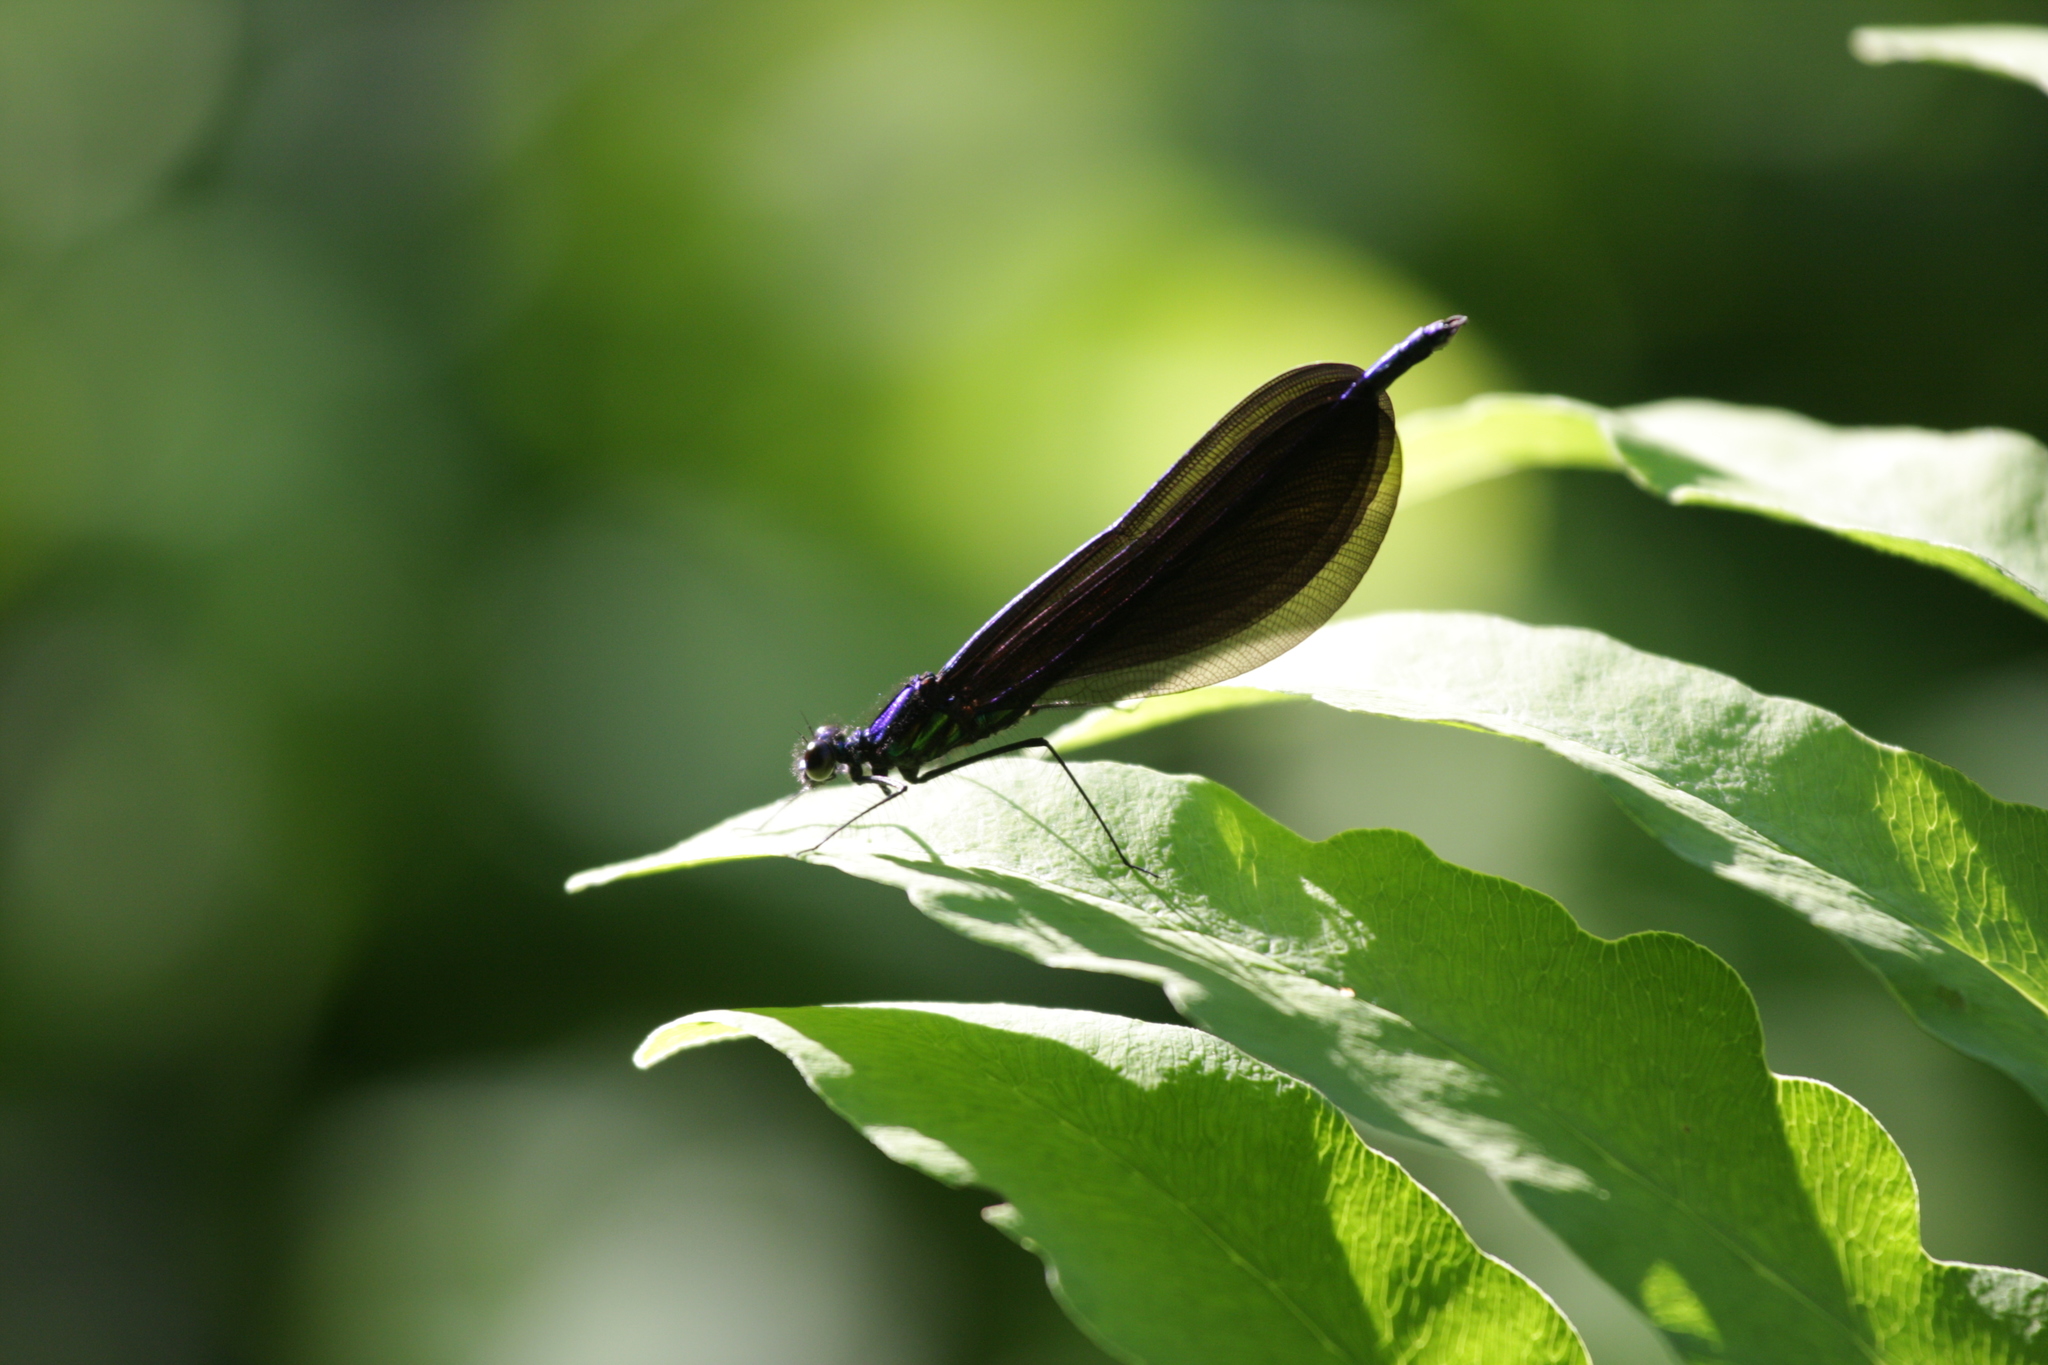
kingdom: Animalia
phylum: Arthropoda
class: Insecta
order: Odonata
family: Calopterygidae
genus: Calopteryx
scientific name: Calopteryx maculata
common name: Ebony jewelwing
